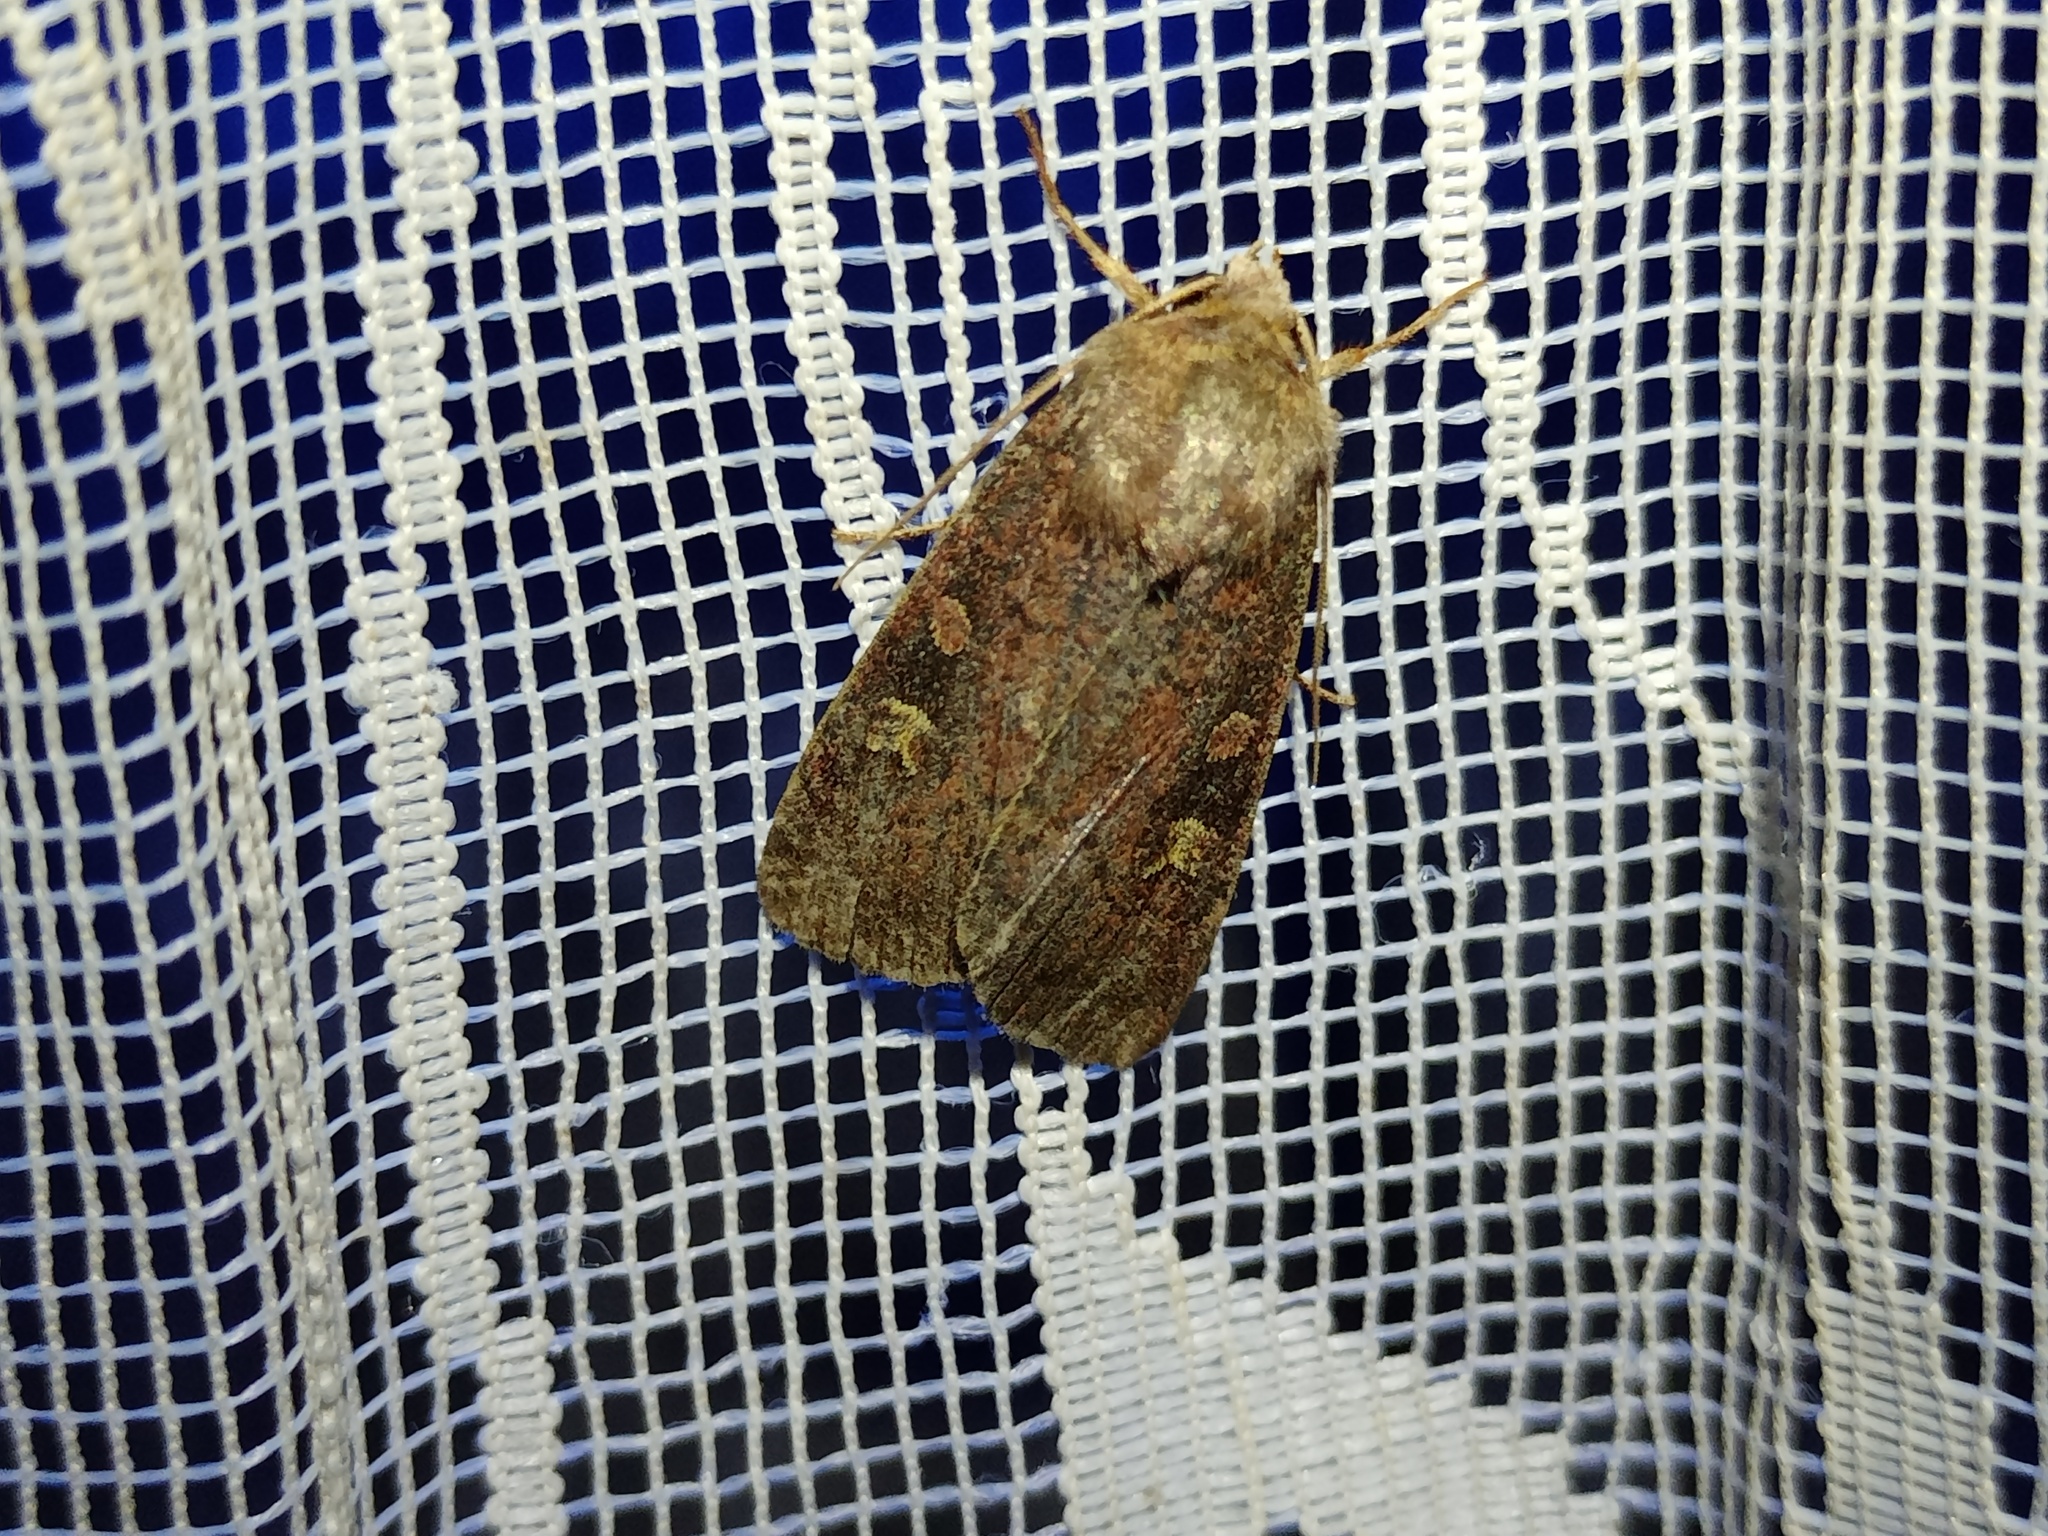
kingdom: Animalia
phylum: Arthropoda
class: Insecta
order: Lepidoptera
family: Noctuidae
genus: Xestia
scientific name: Xestia xanthographa
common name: Square-spot rustic
